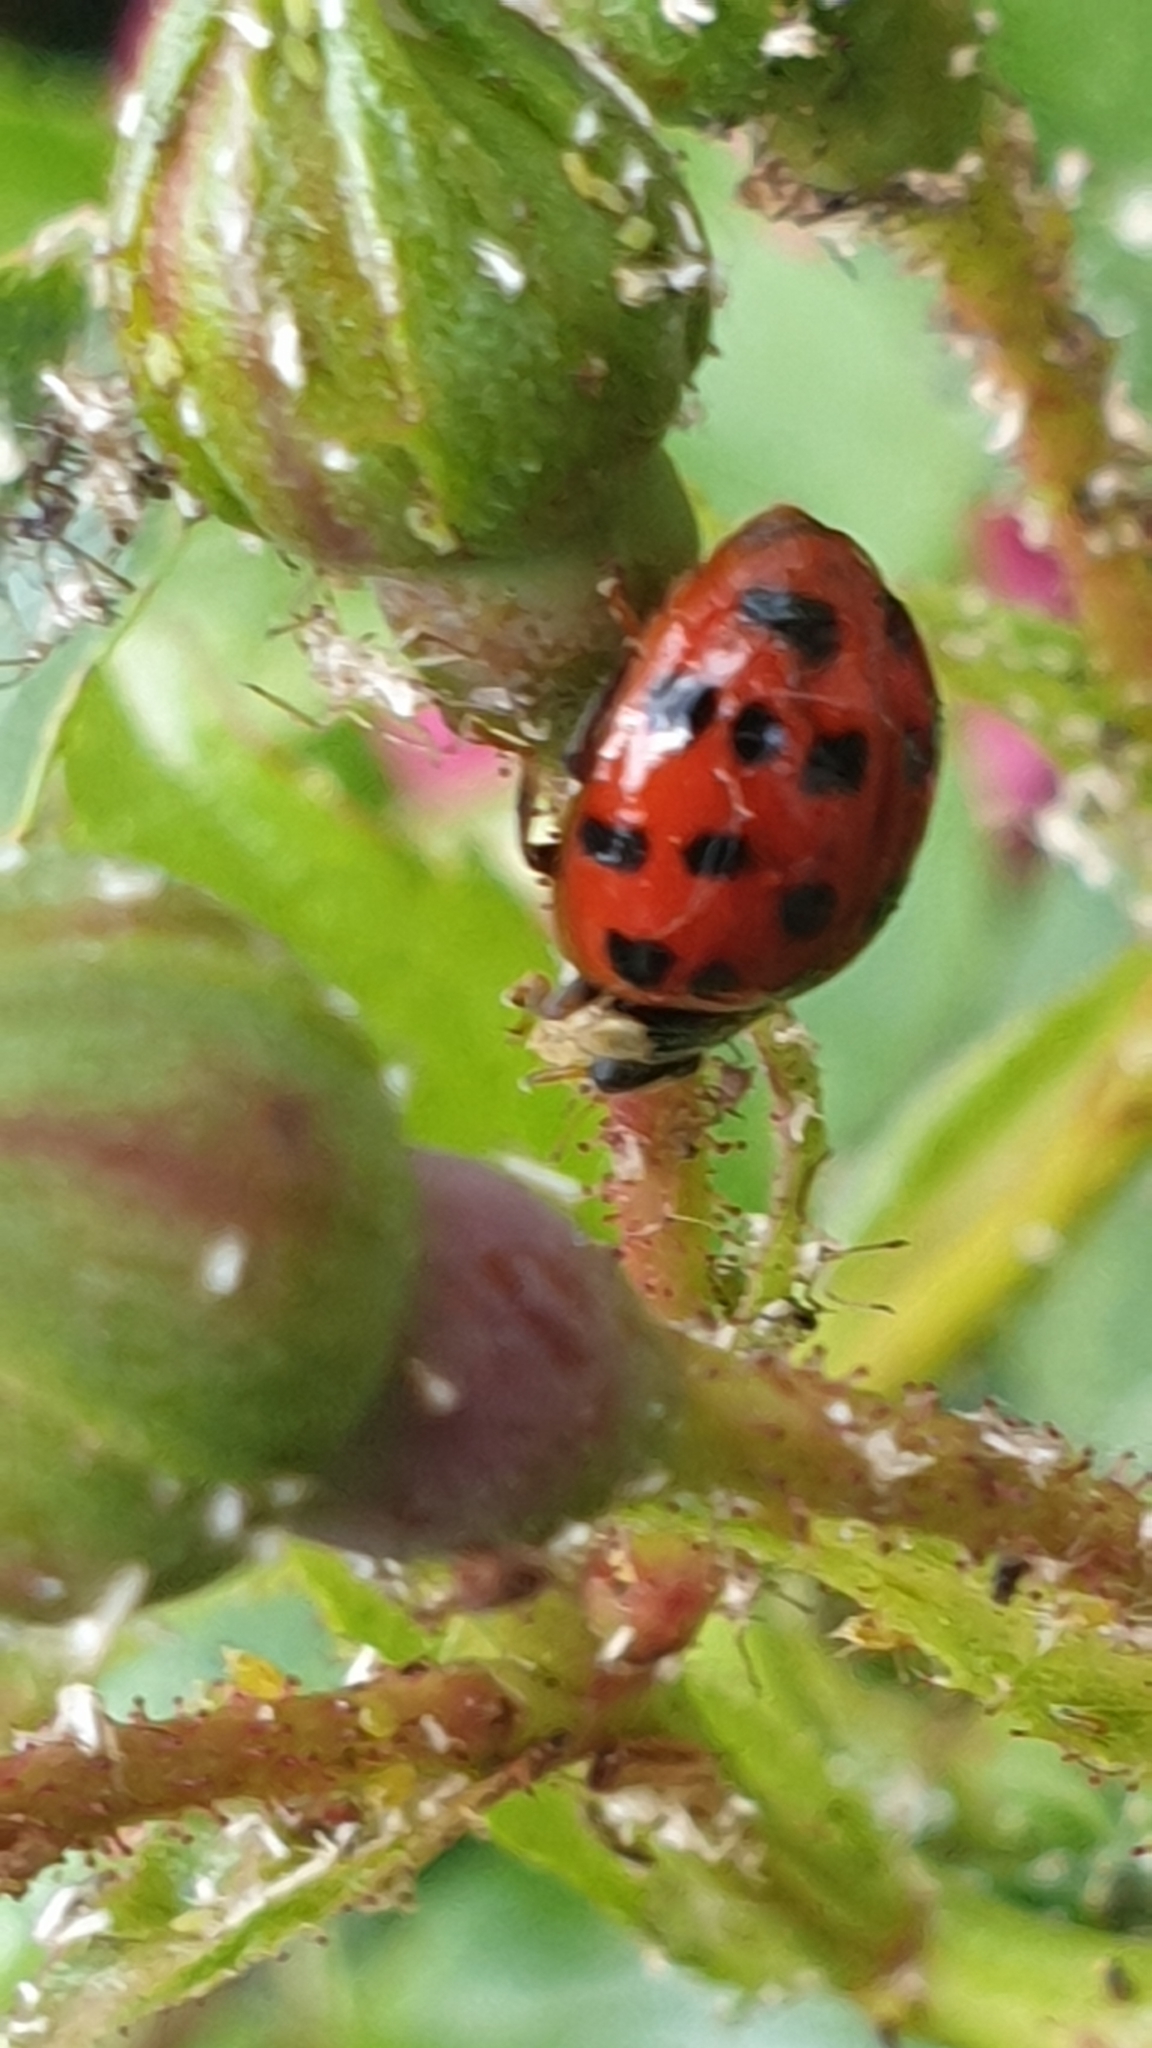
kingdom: Animalia
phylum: Arthropoda
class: Insecta
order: Coleoptera
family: Coccinellidae
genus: Harmonia
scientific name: Harmonia axyridis
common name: Harlequin ladybird
